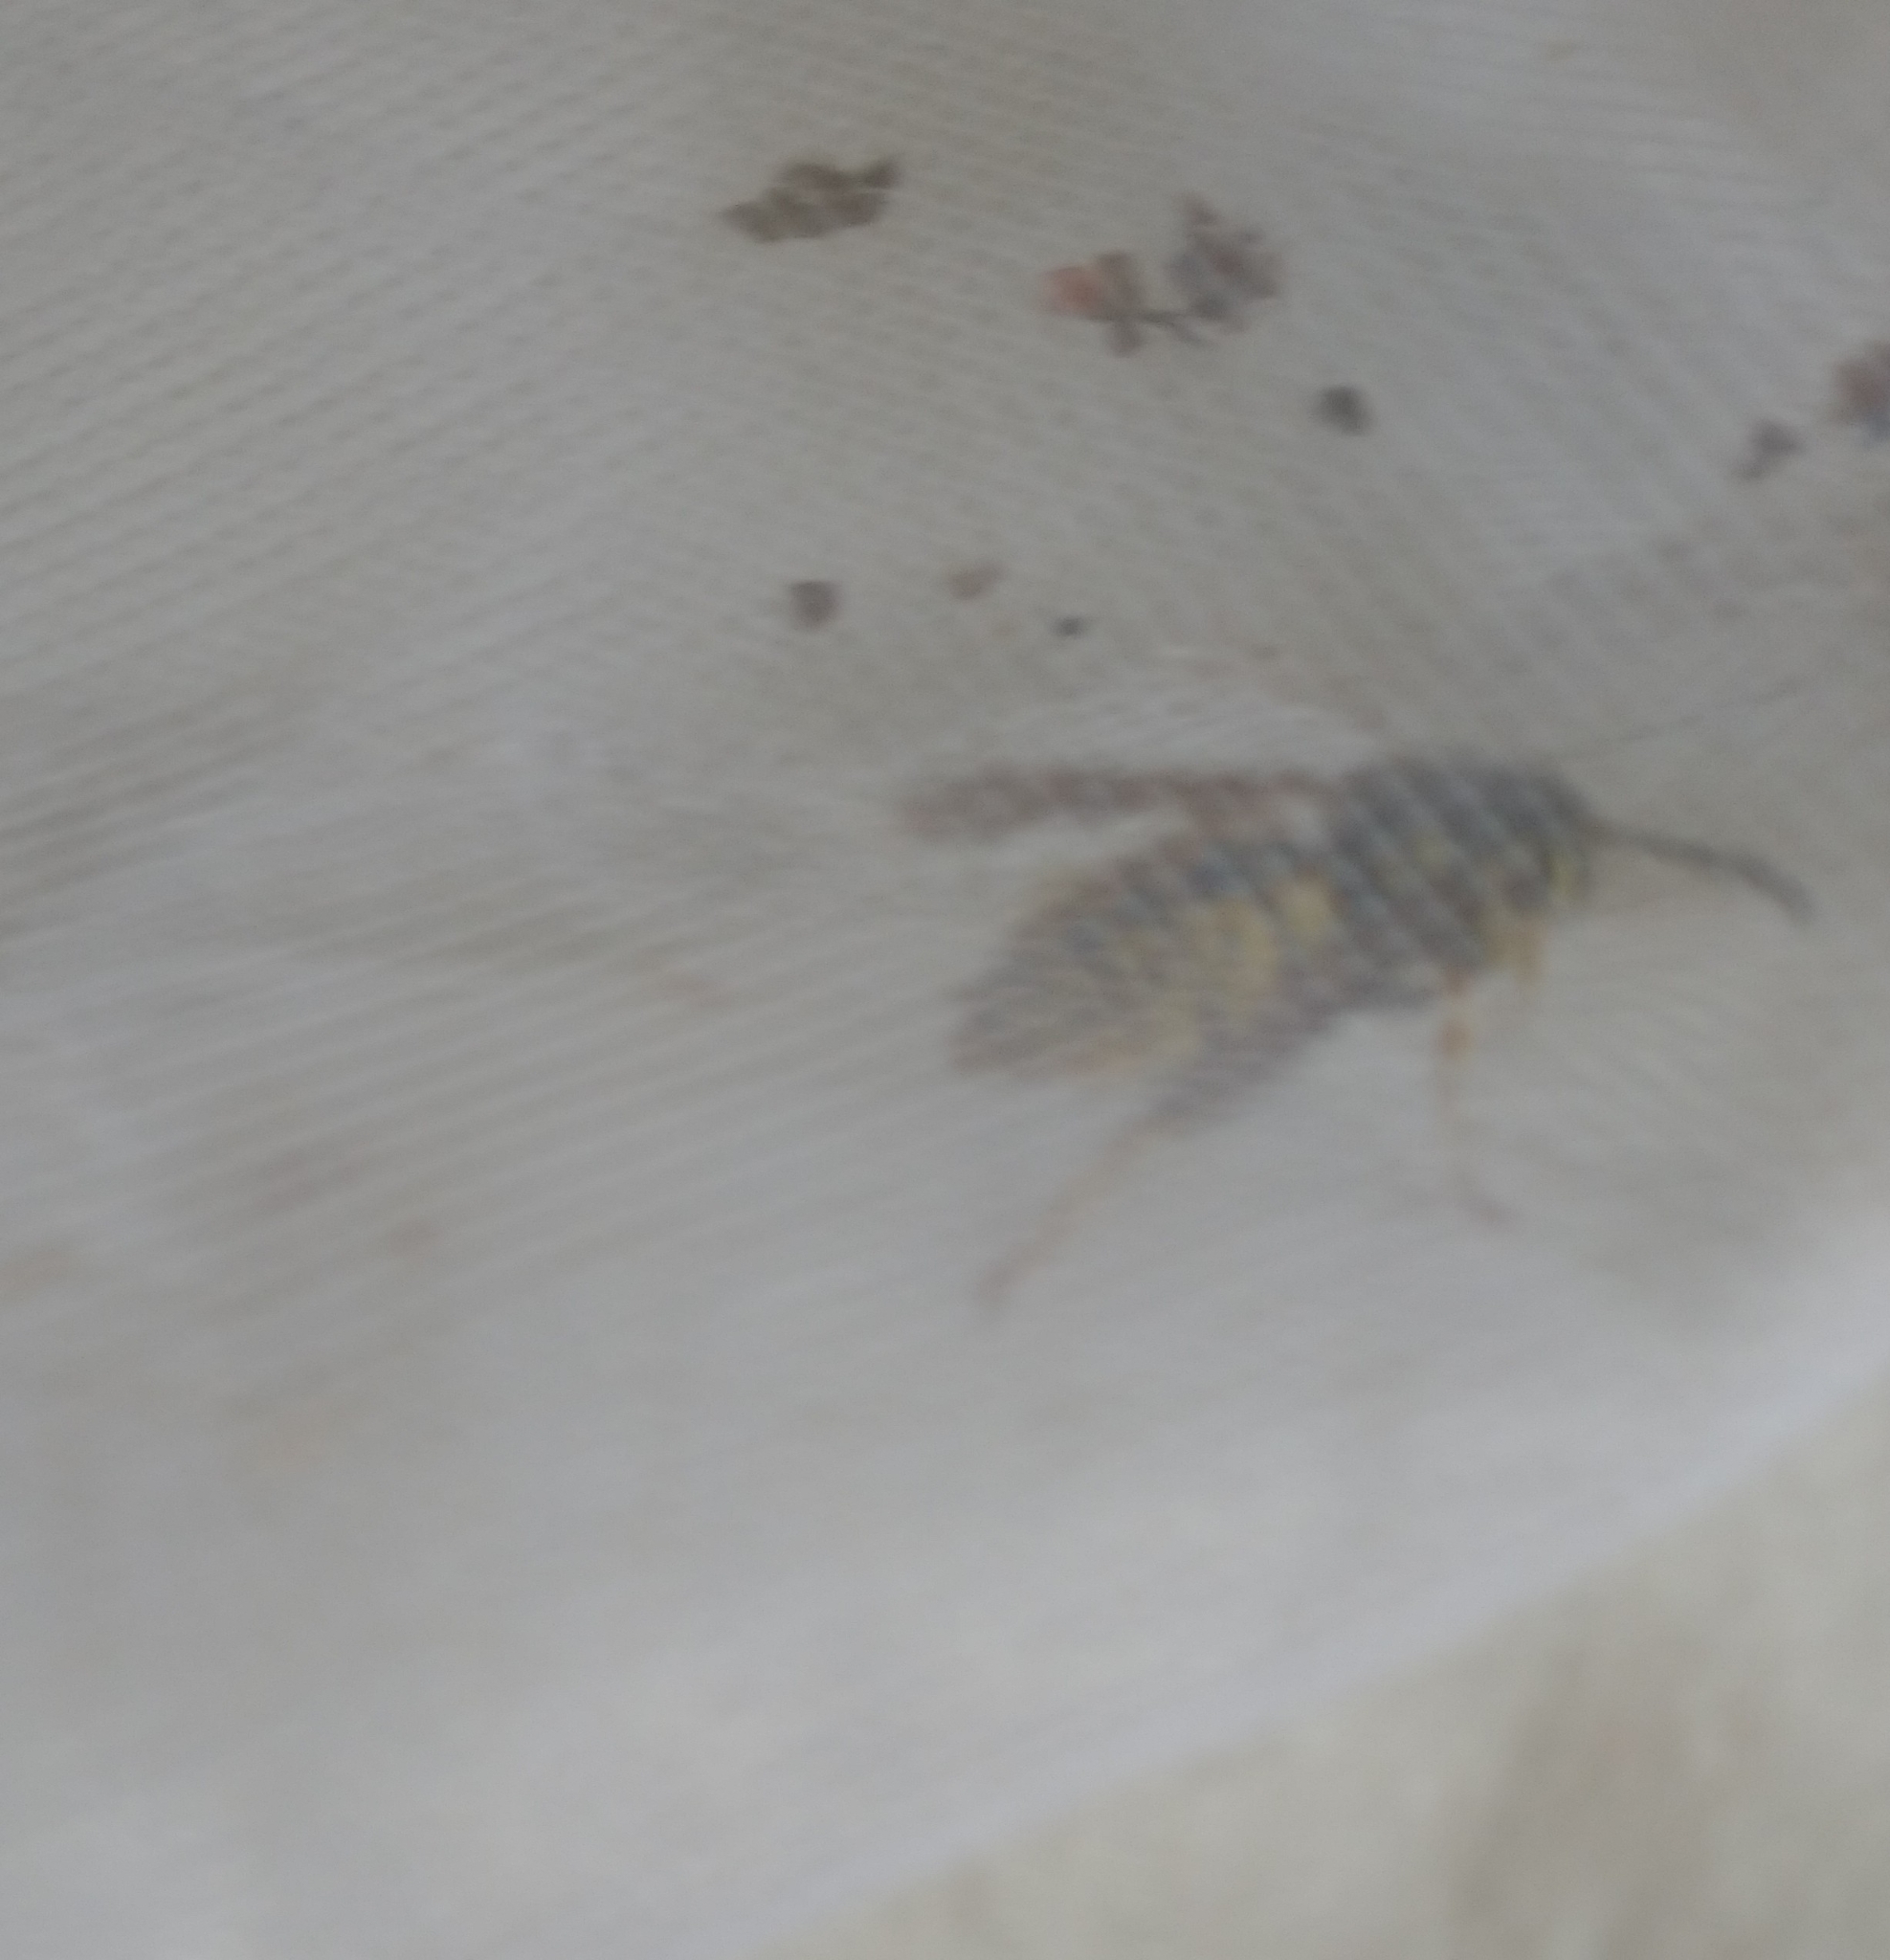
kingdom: Animalia
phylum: Arthropoda
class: Insecta
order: Hymenoptera
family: Vespidae
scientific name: Vespidae
